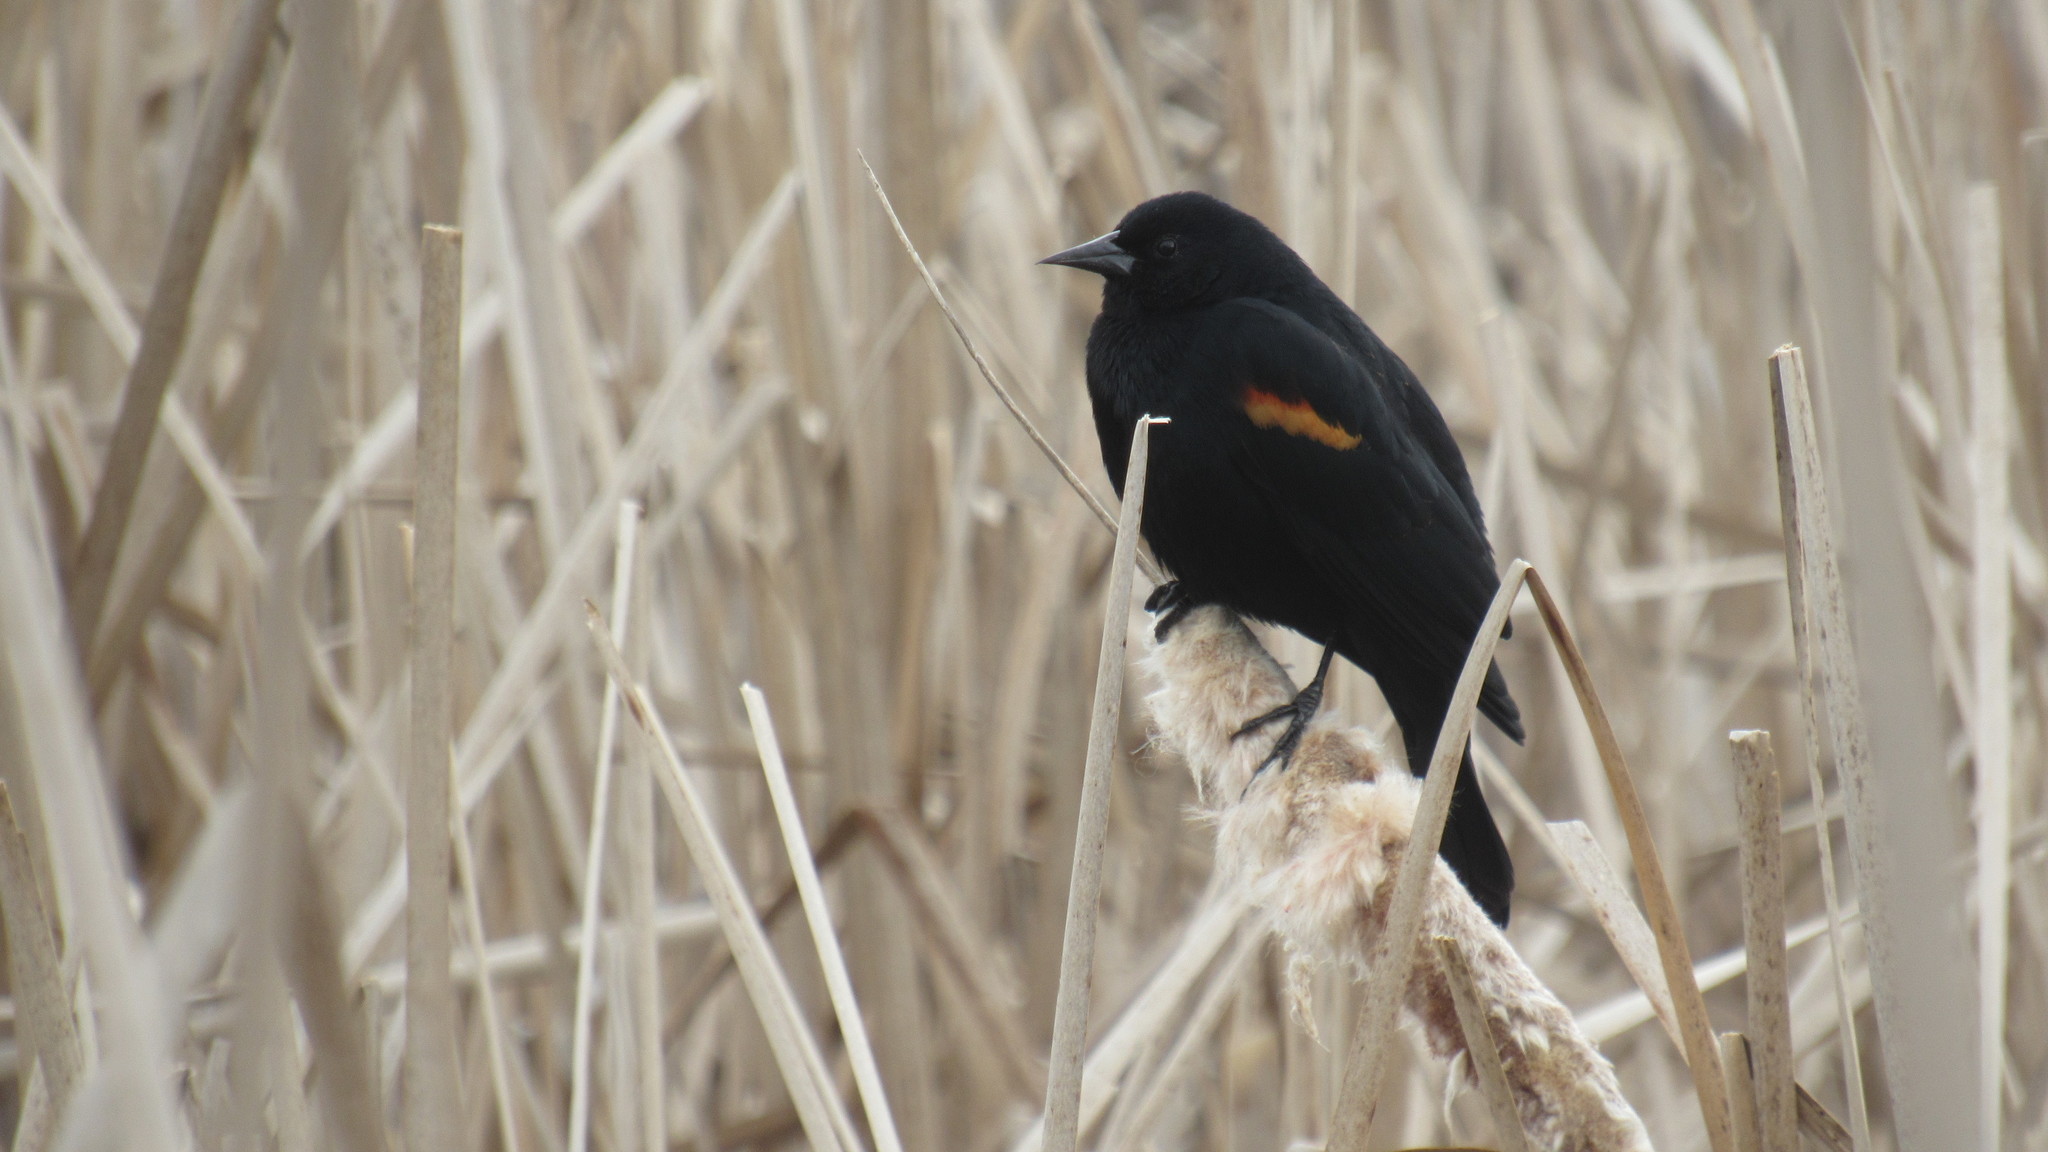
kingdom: Animalia
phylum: Chordata
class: Aves
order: Passeriformes
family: Icteridae
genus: Agelaius
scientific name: Agelaius phoeniceus
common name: Red-winged blackbird
